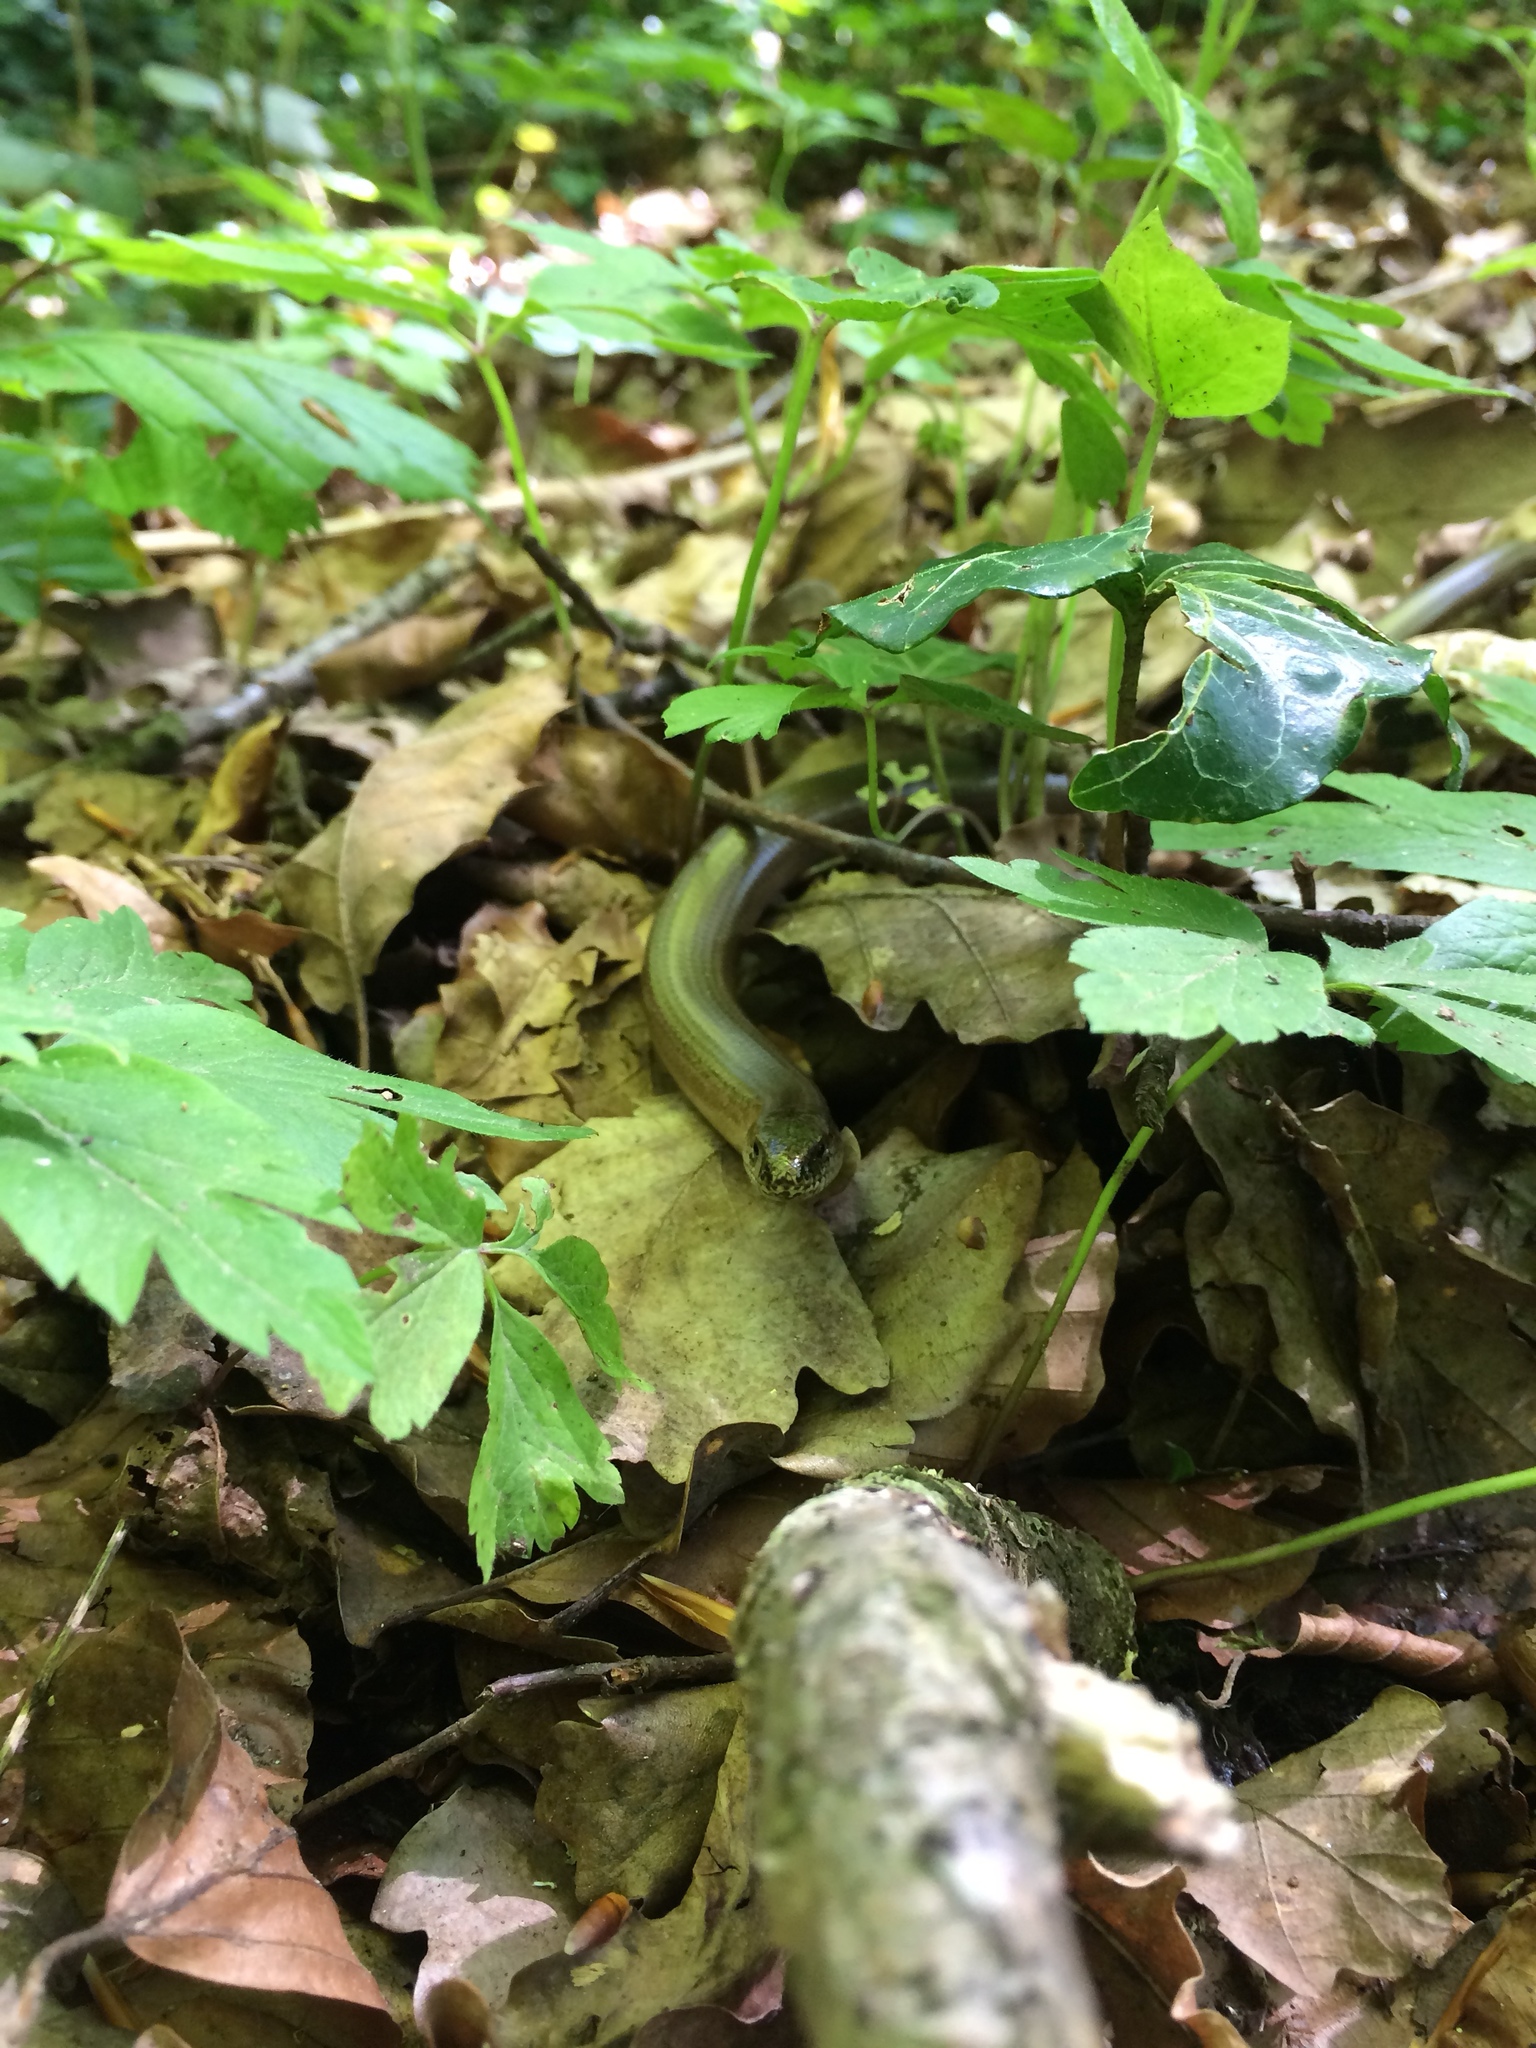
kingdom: Animalia
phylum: Chordata
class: Squamata
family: Anguidae
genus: Anguis
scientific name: Anguis fragilis
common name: Slow worm
